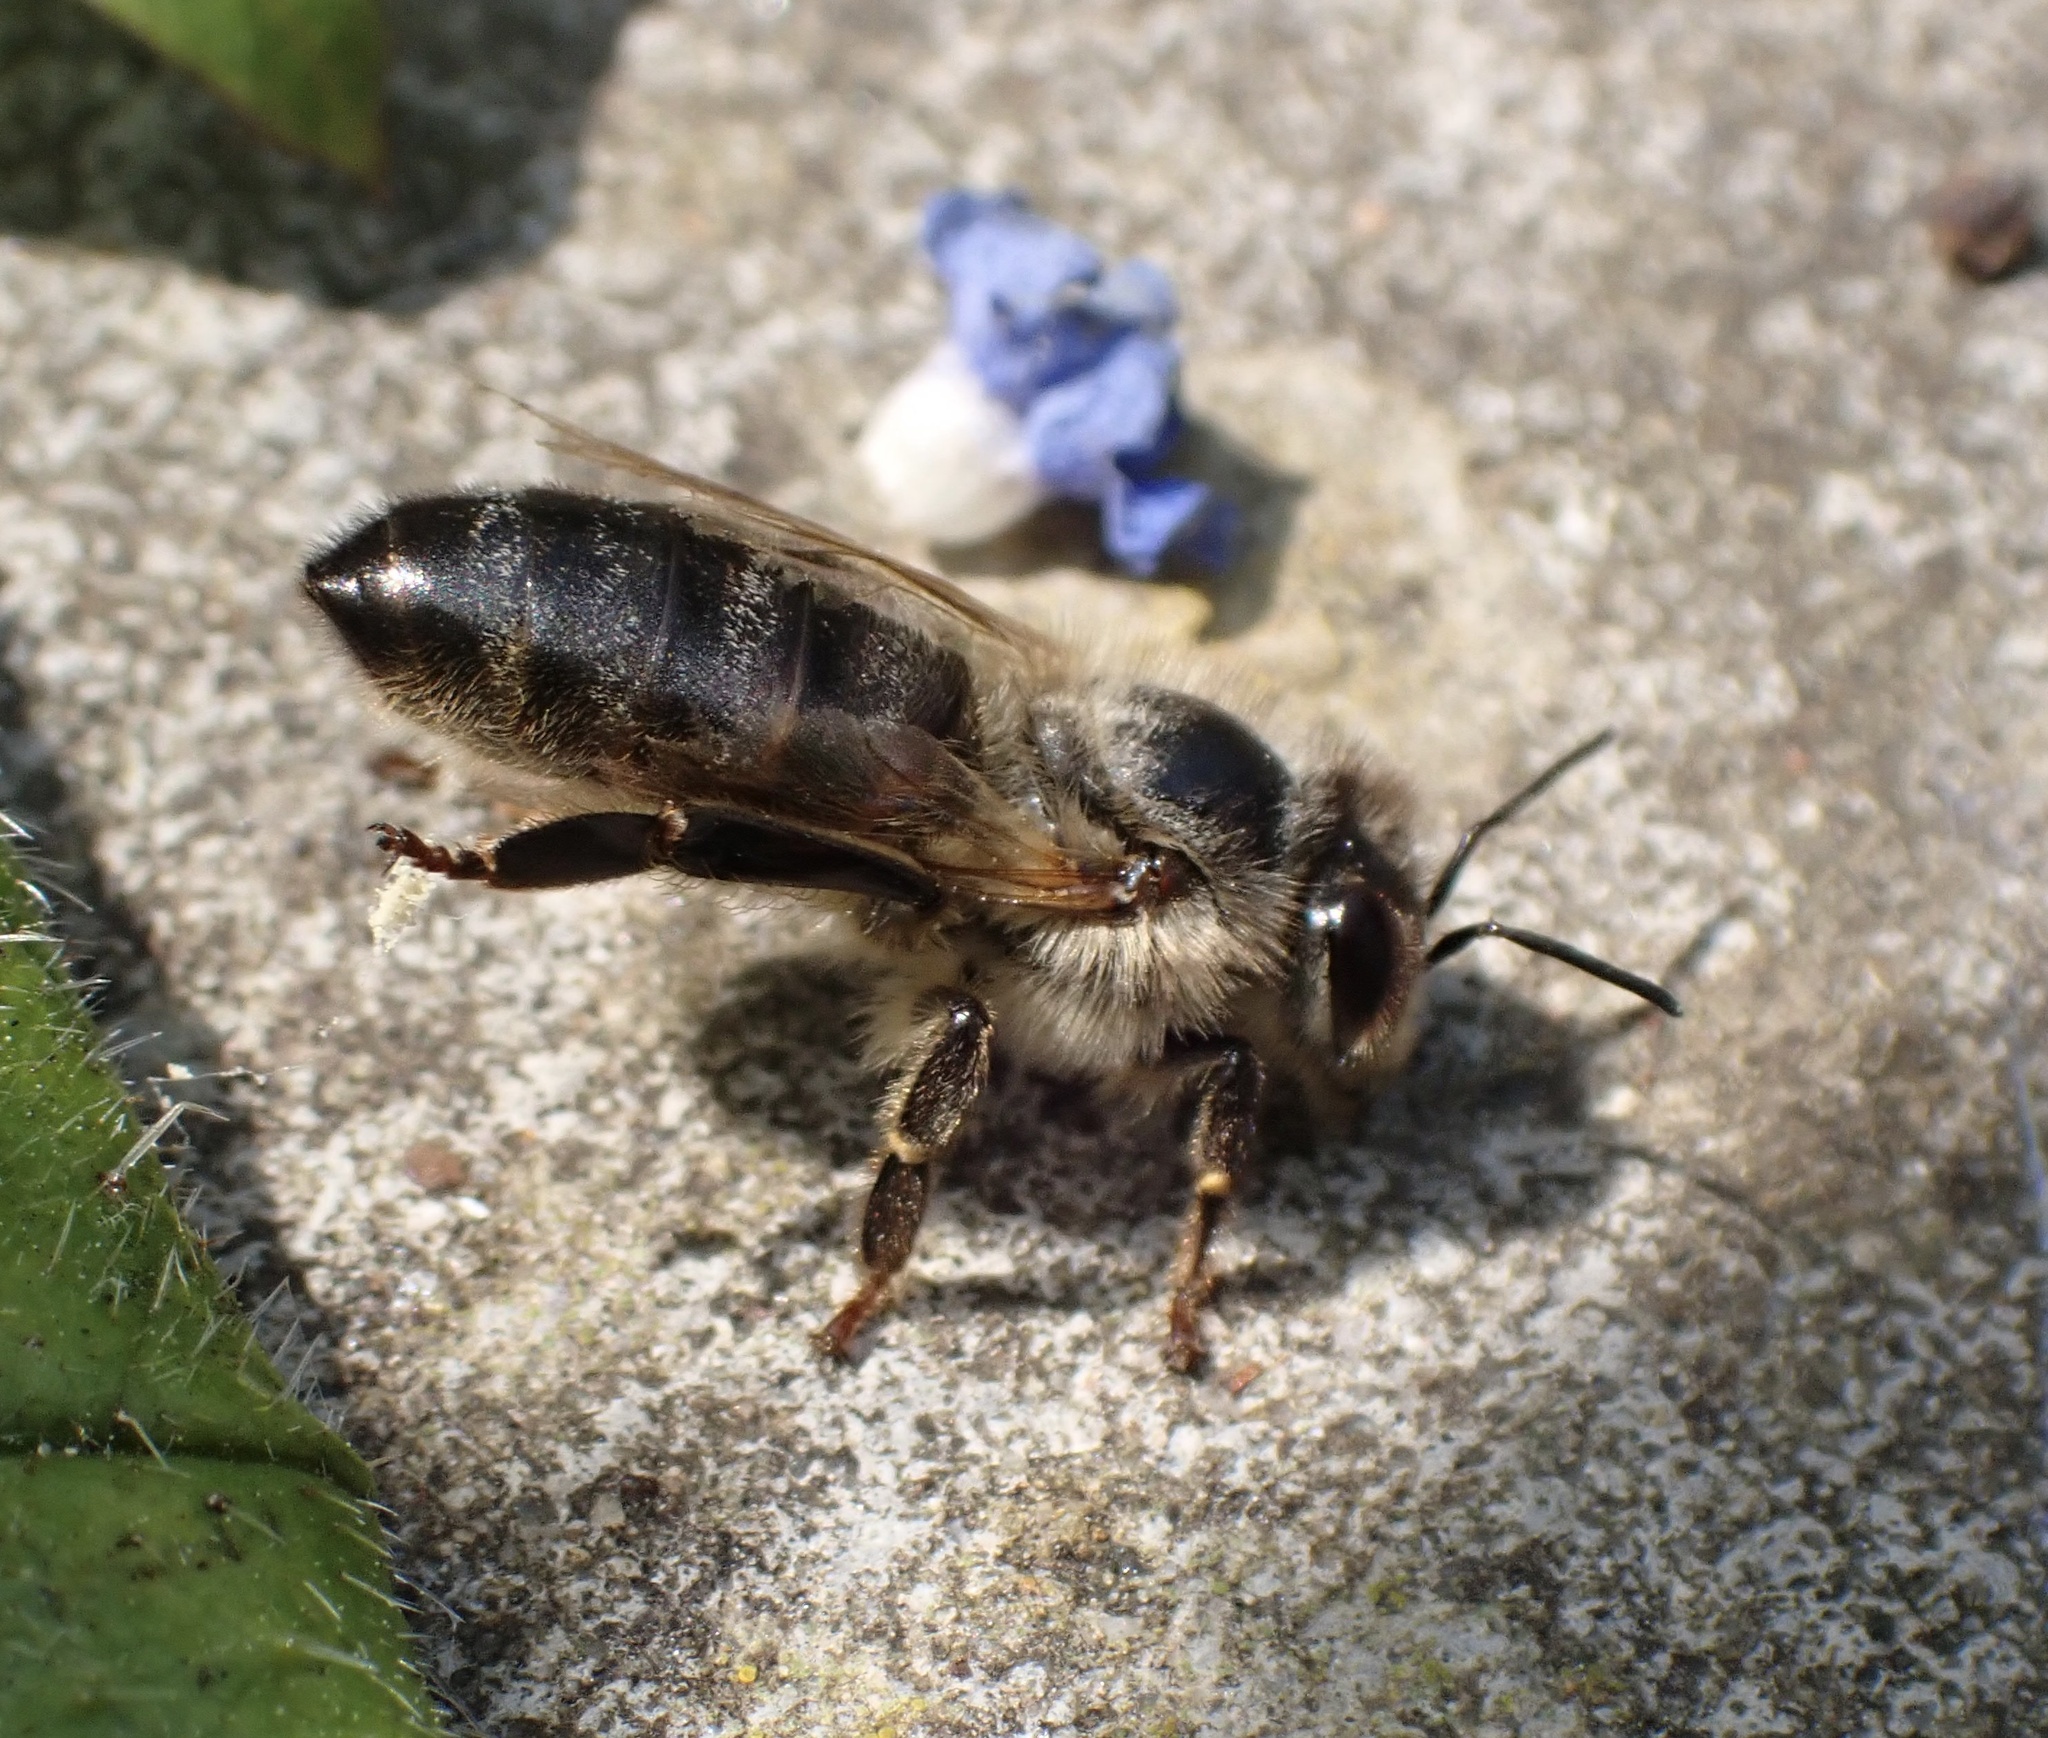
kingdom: Animalia
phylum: Arthropoda
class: Insecta
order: Hymenoptera
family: Apidae
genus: Apis
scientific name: Apis mellifera
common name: Honey bee
